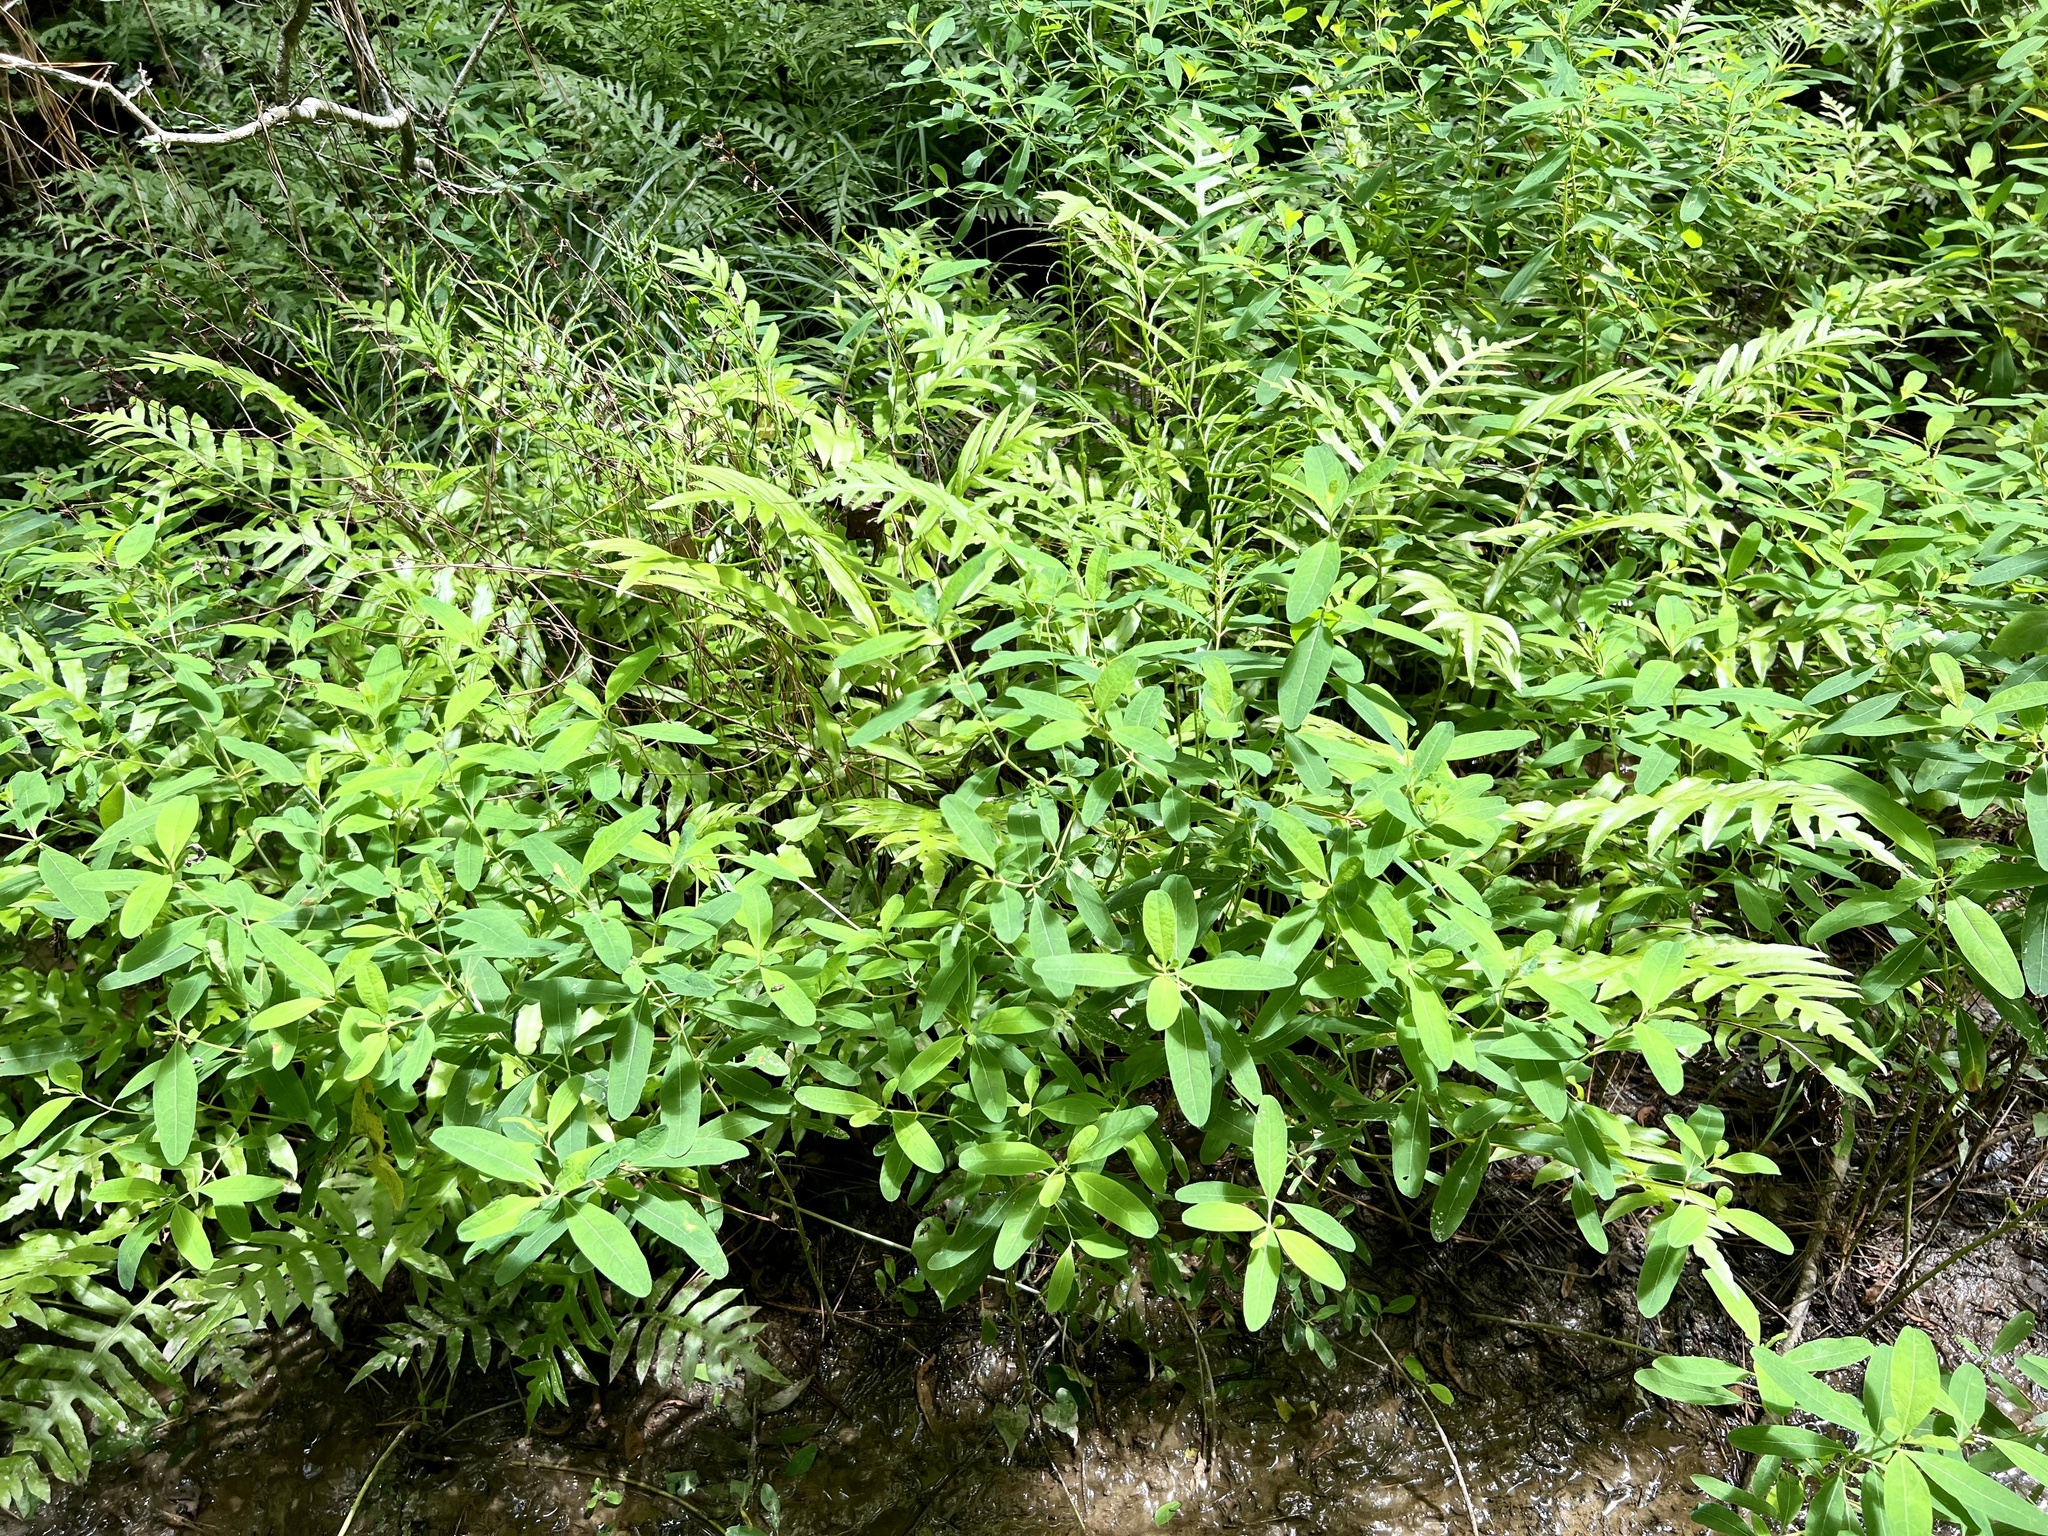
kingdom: Plantae
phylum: Tracheophyta
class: Magnoliopsida
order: Malpighiales
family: Hypericaceae
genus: Triadenum
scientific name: Triadenum walteri
